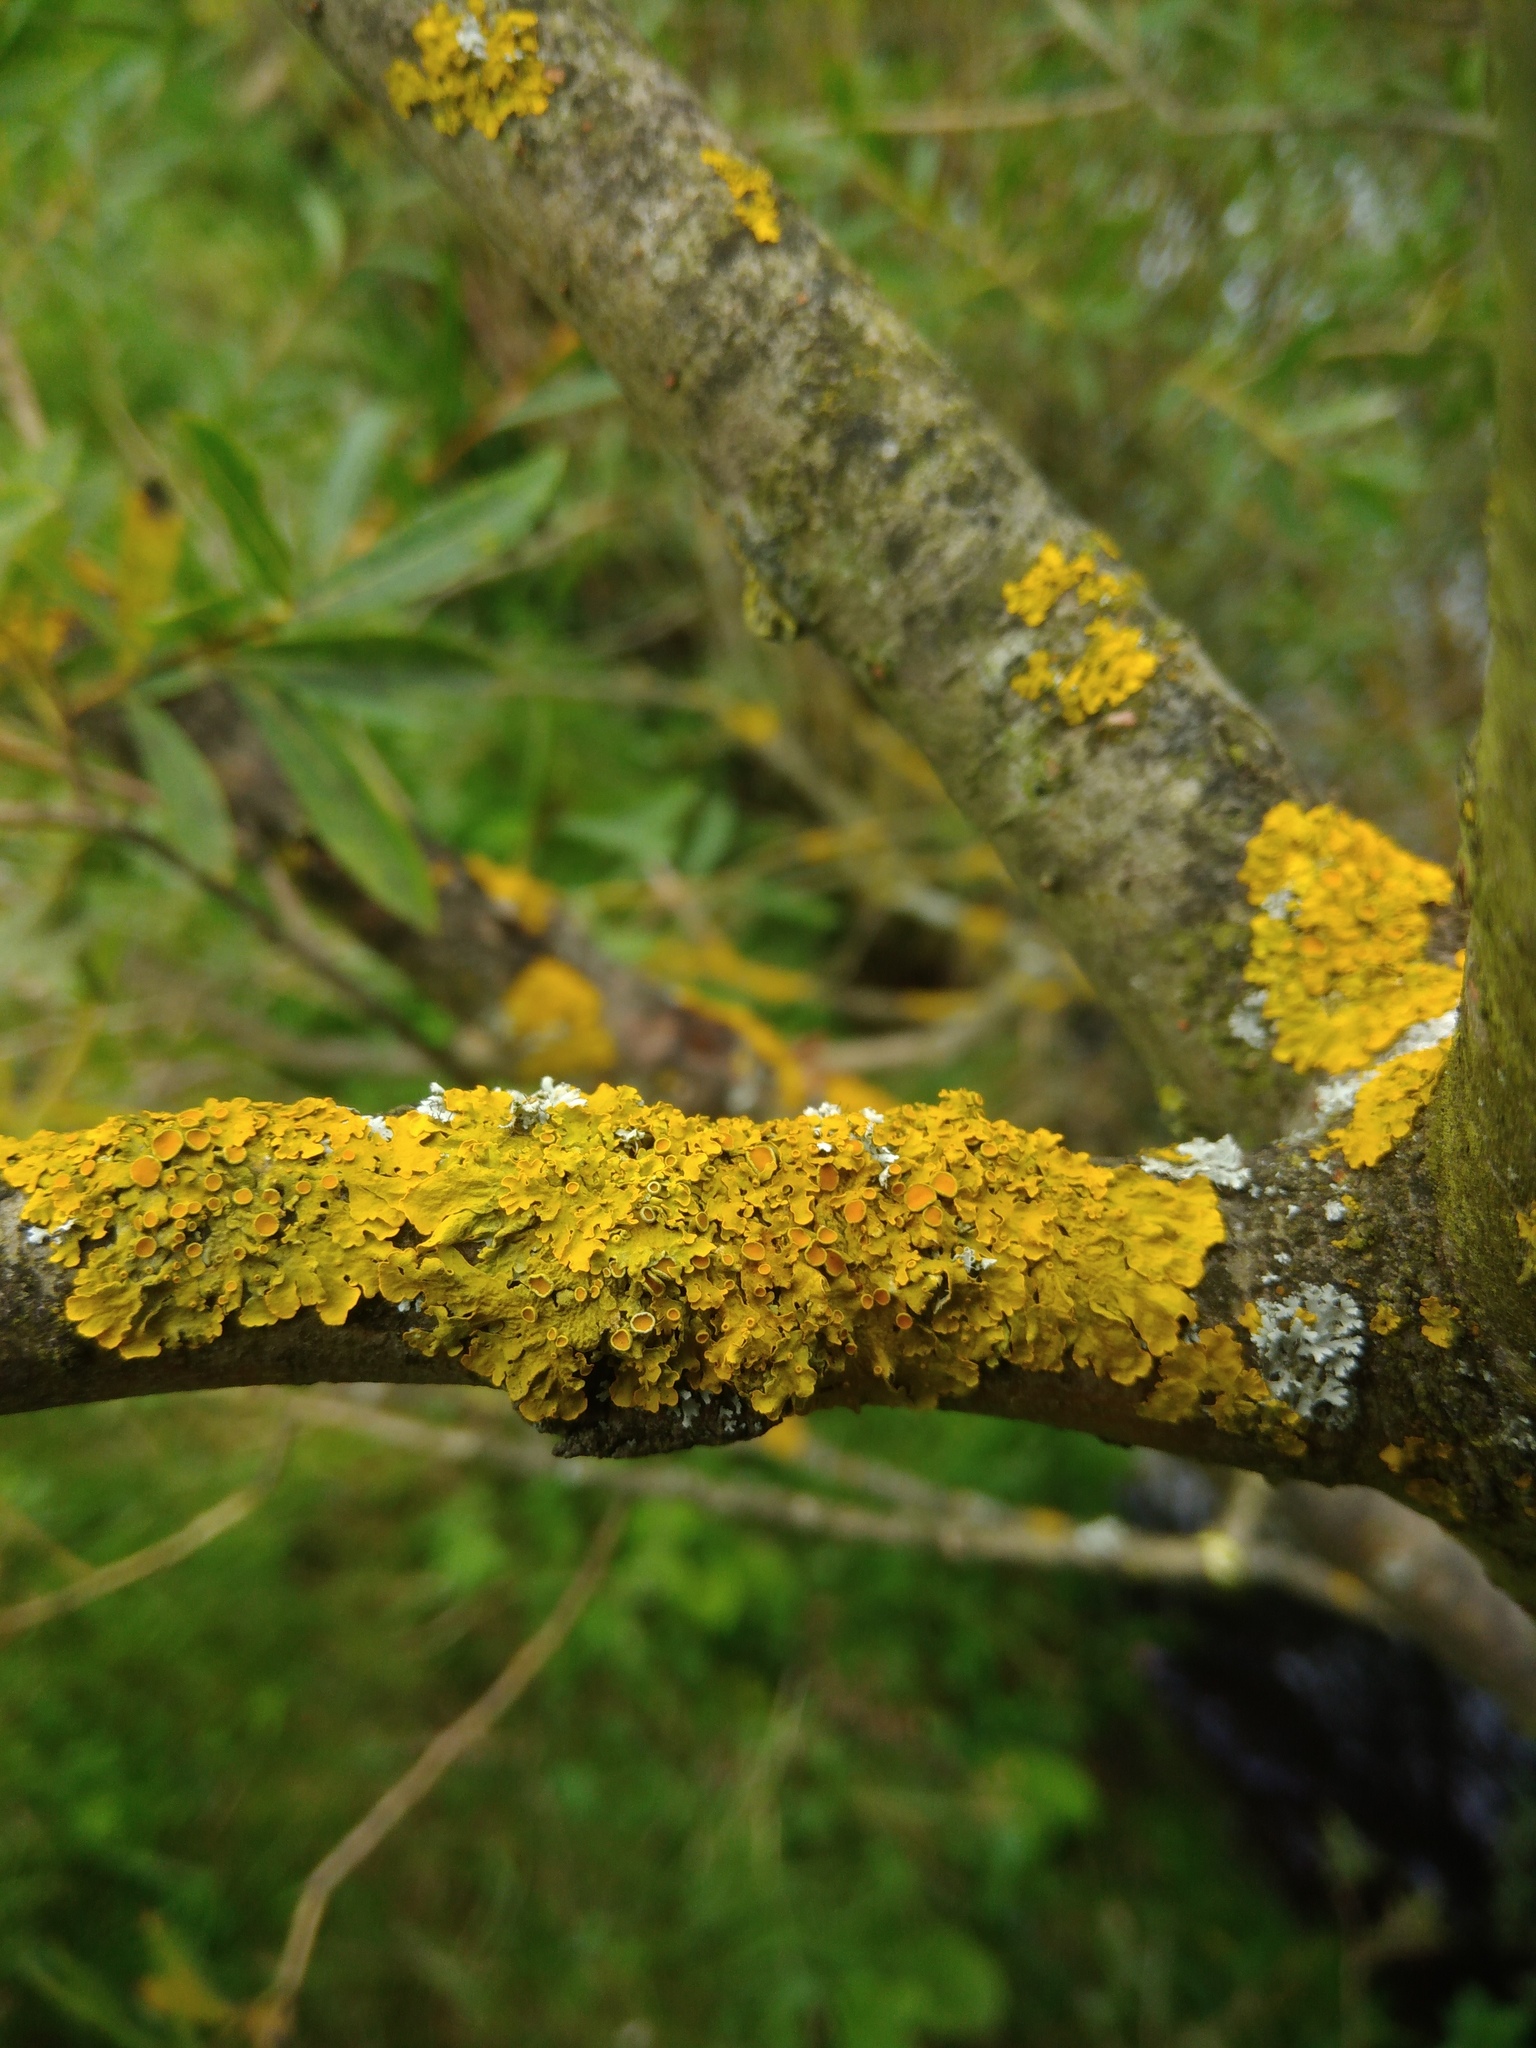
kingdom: Fungi
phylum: Ascomycota
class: Lecanoromycetes
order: Teloschistales
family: Teloschistaceae
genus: Xanthoria
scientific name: Xanthoria parietina
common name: Common orange lichen
